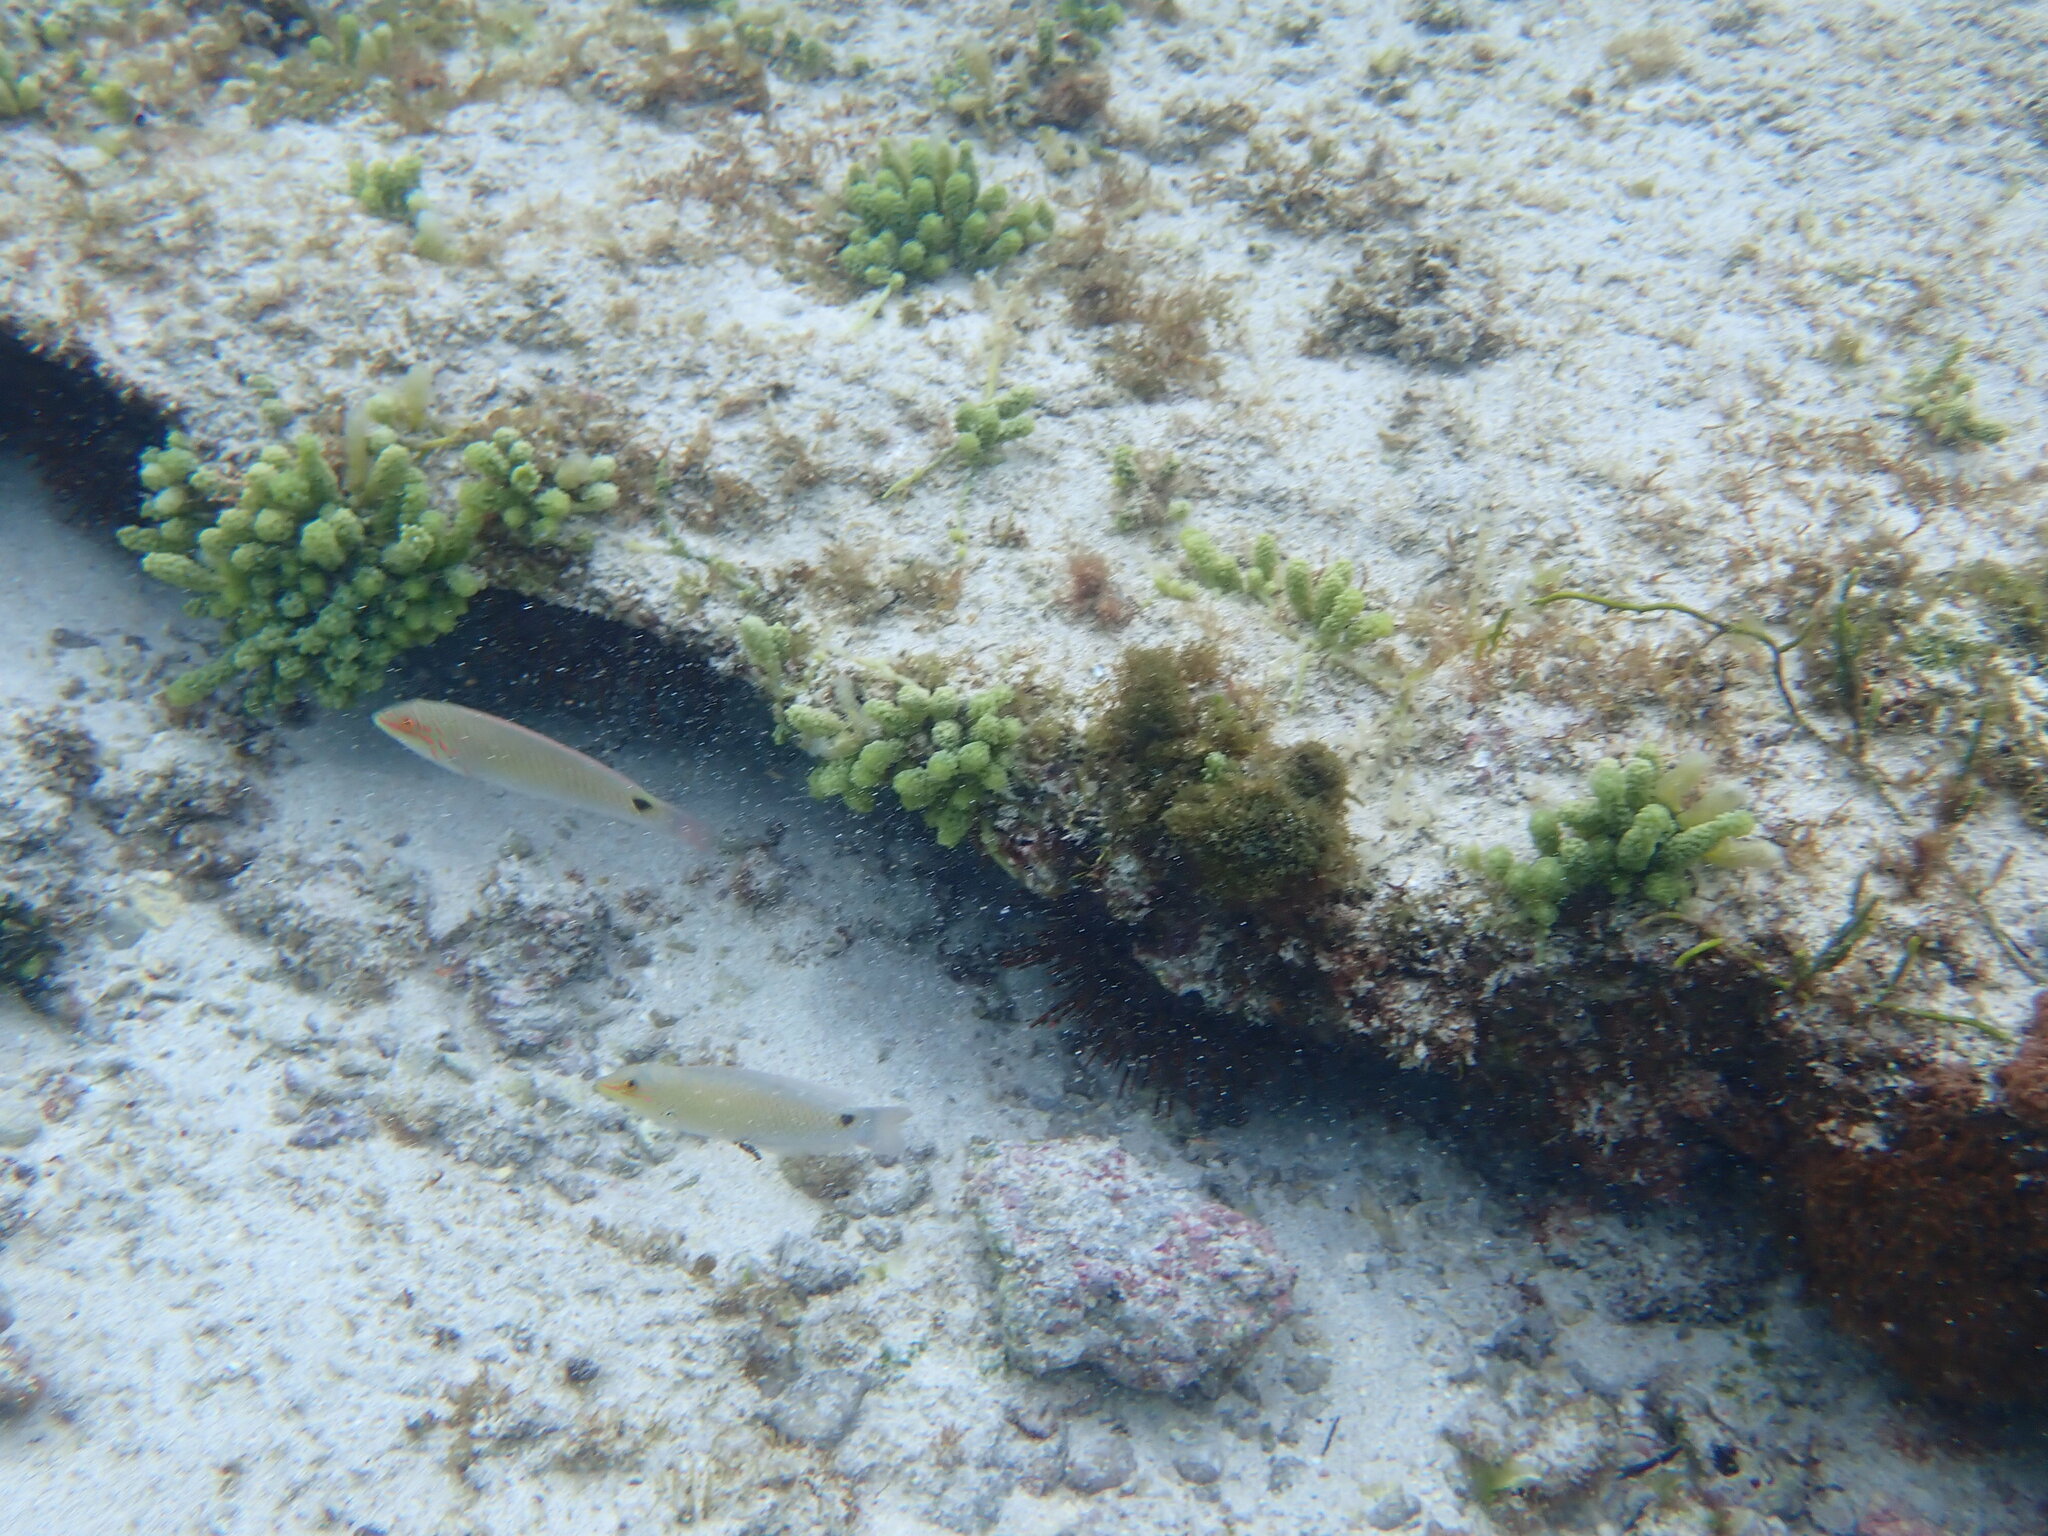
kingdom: Animalia
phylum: Chordata
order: Perciformes
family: Labridae
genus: Halichoeres
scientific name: Halichoeres trimaculatus
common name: Three-spot wrasse
